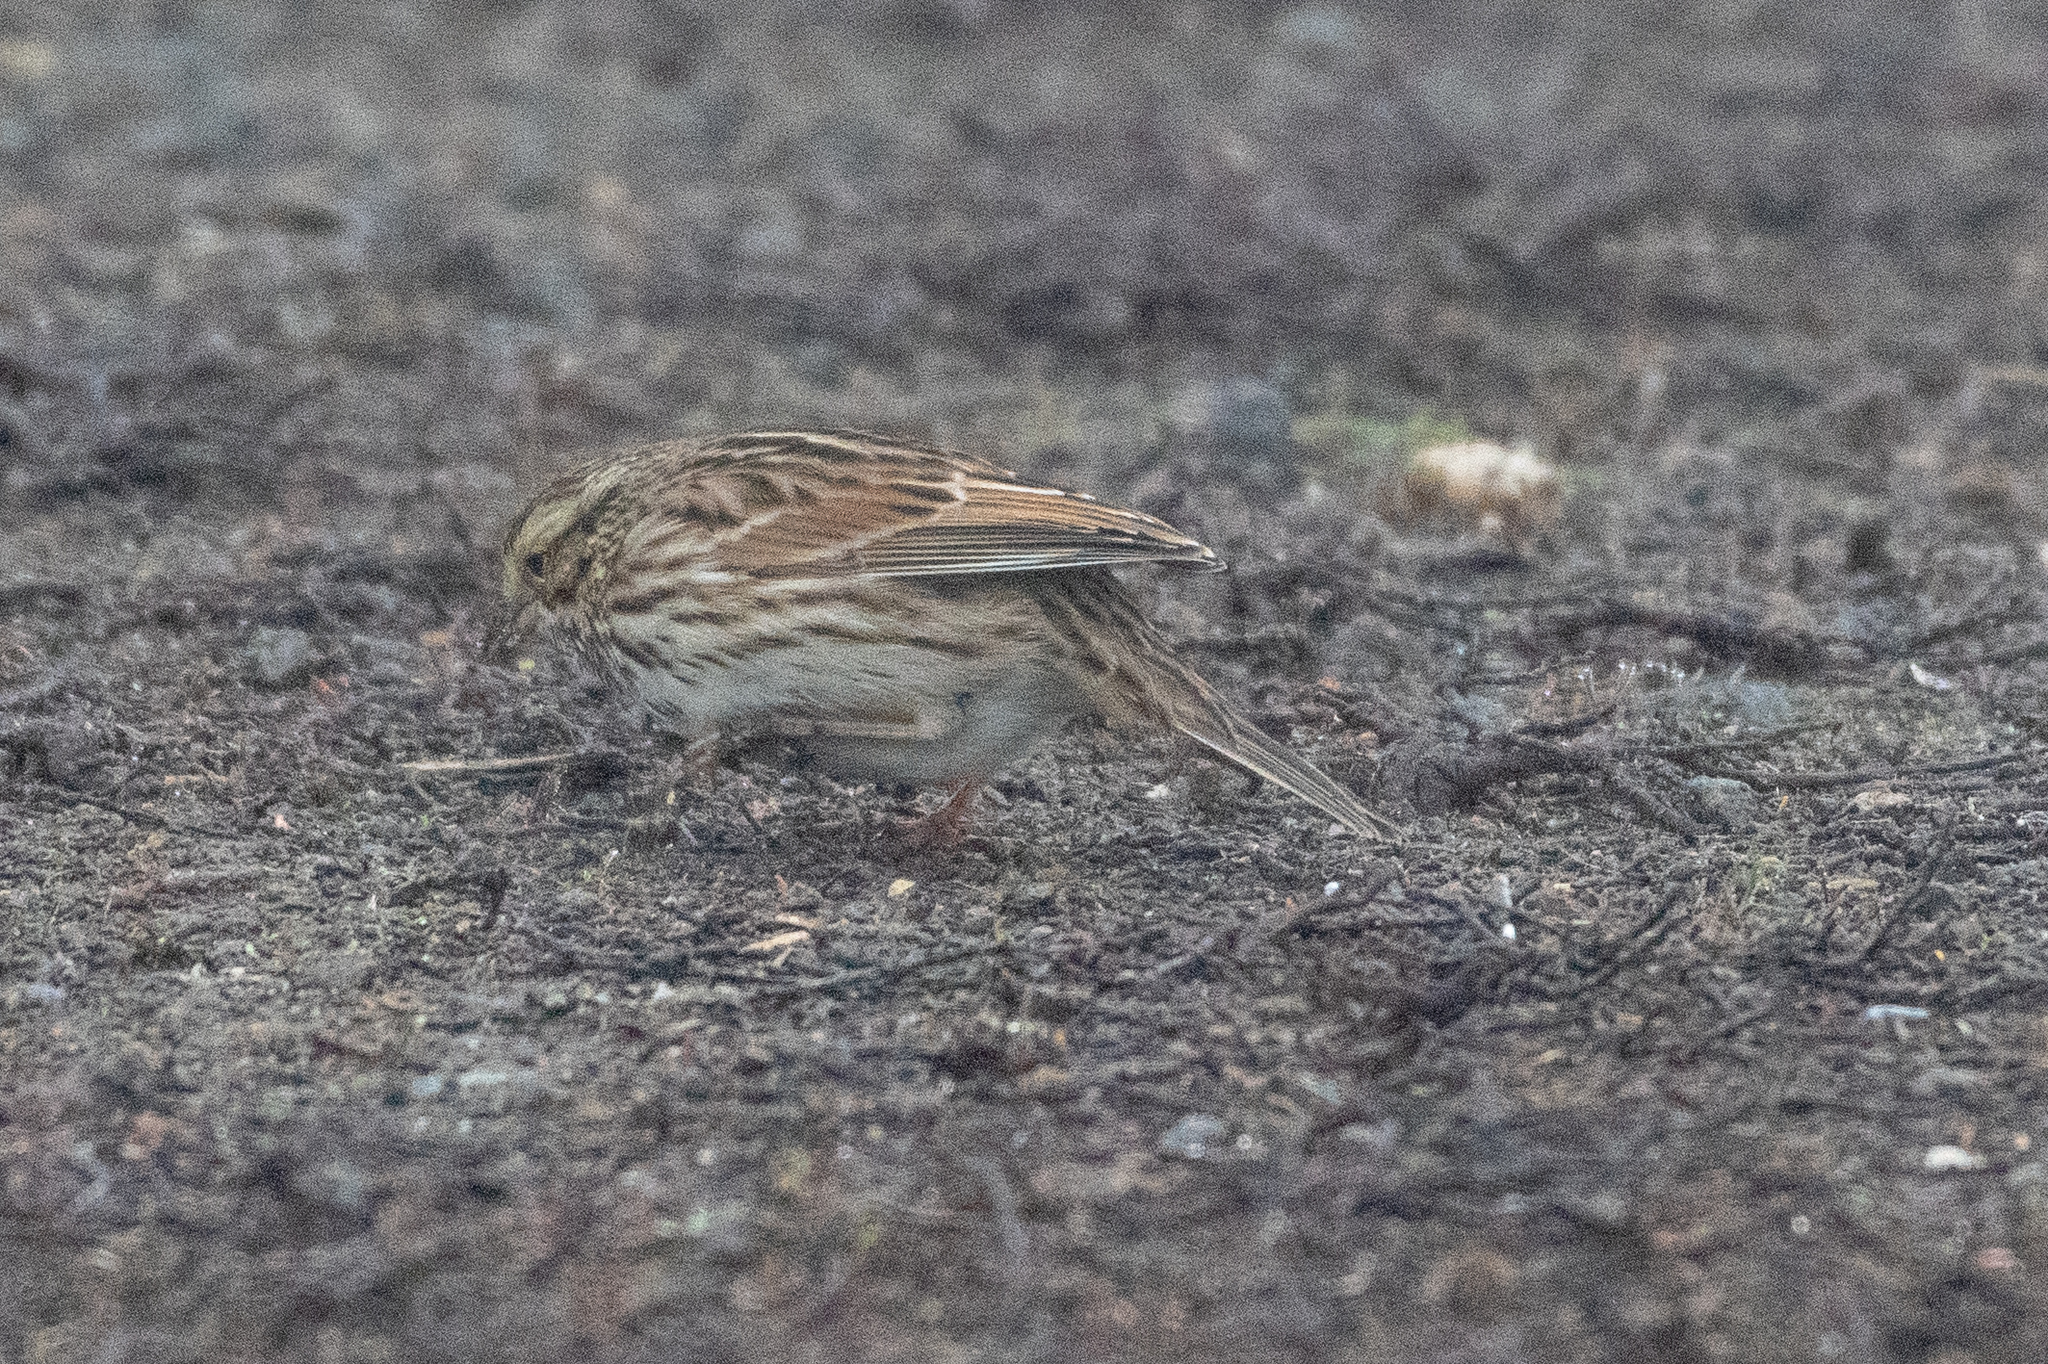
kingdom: Animalia
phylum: Chordata
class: Aves
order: Passeriformes
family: Passerellidae
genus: Passerculus
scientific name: Passerculus sandwichensis
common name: Savannah sparrow
